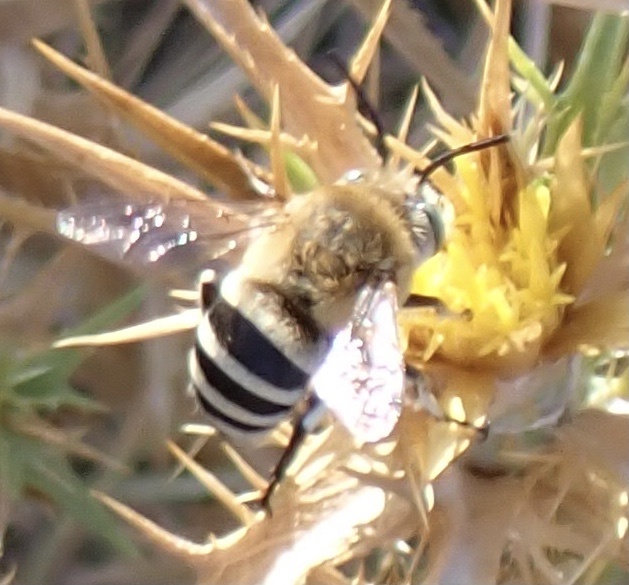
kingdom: Animalia
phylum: Arthropoda
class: Insecta
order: Hymenoptera
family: Apidae
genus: Amegilla
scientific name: Amegilla quadrifasciata
